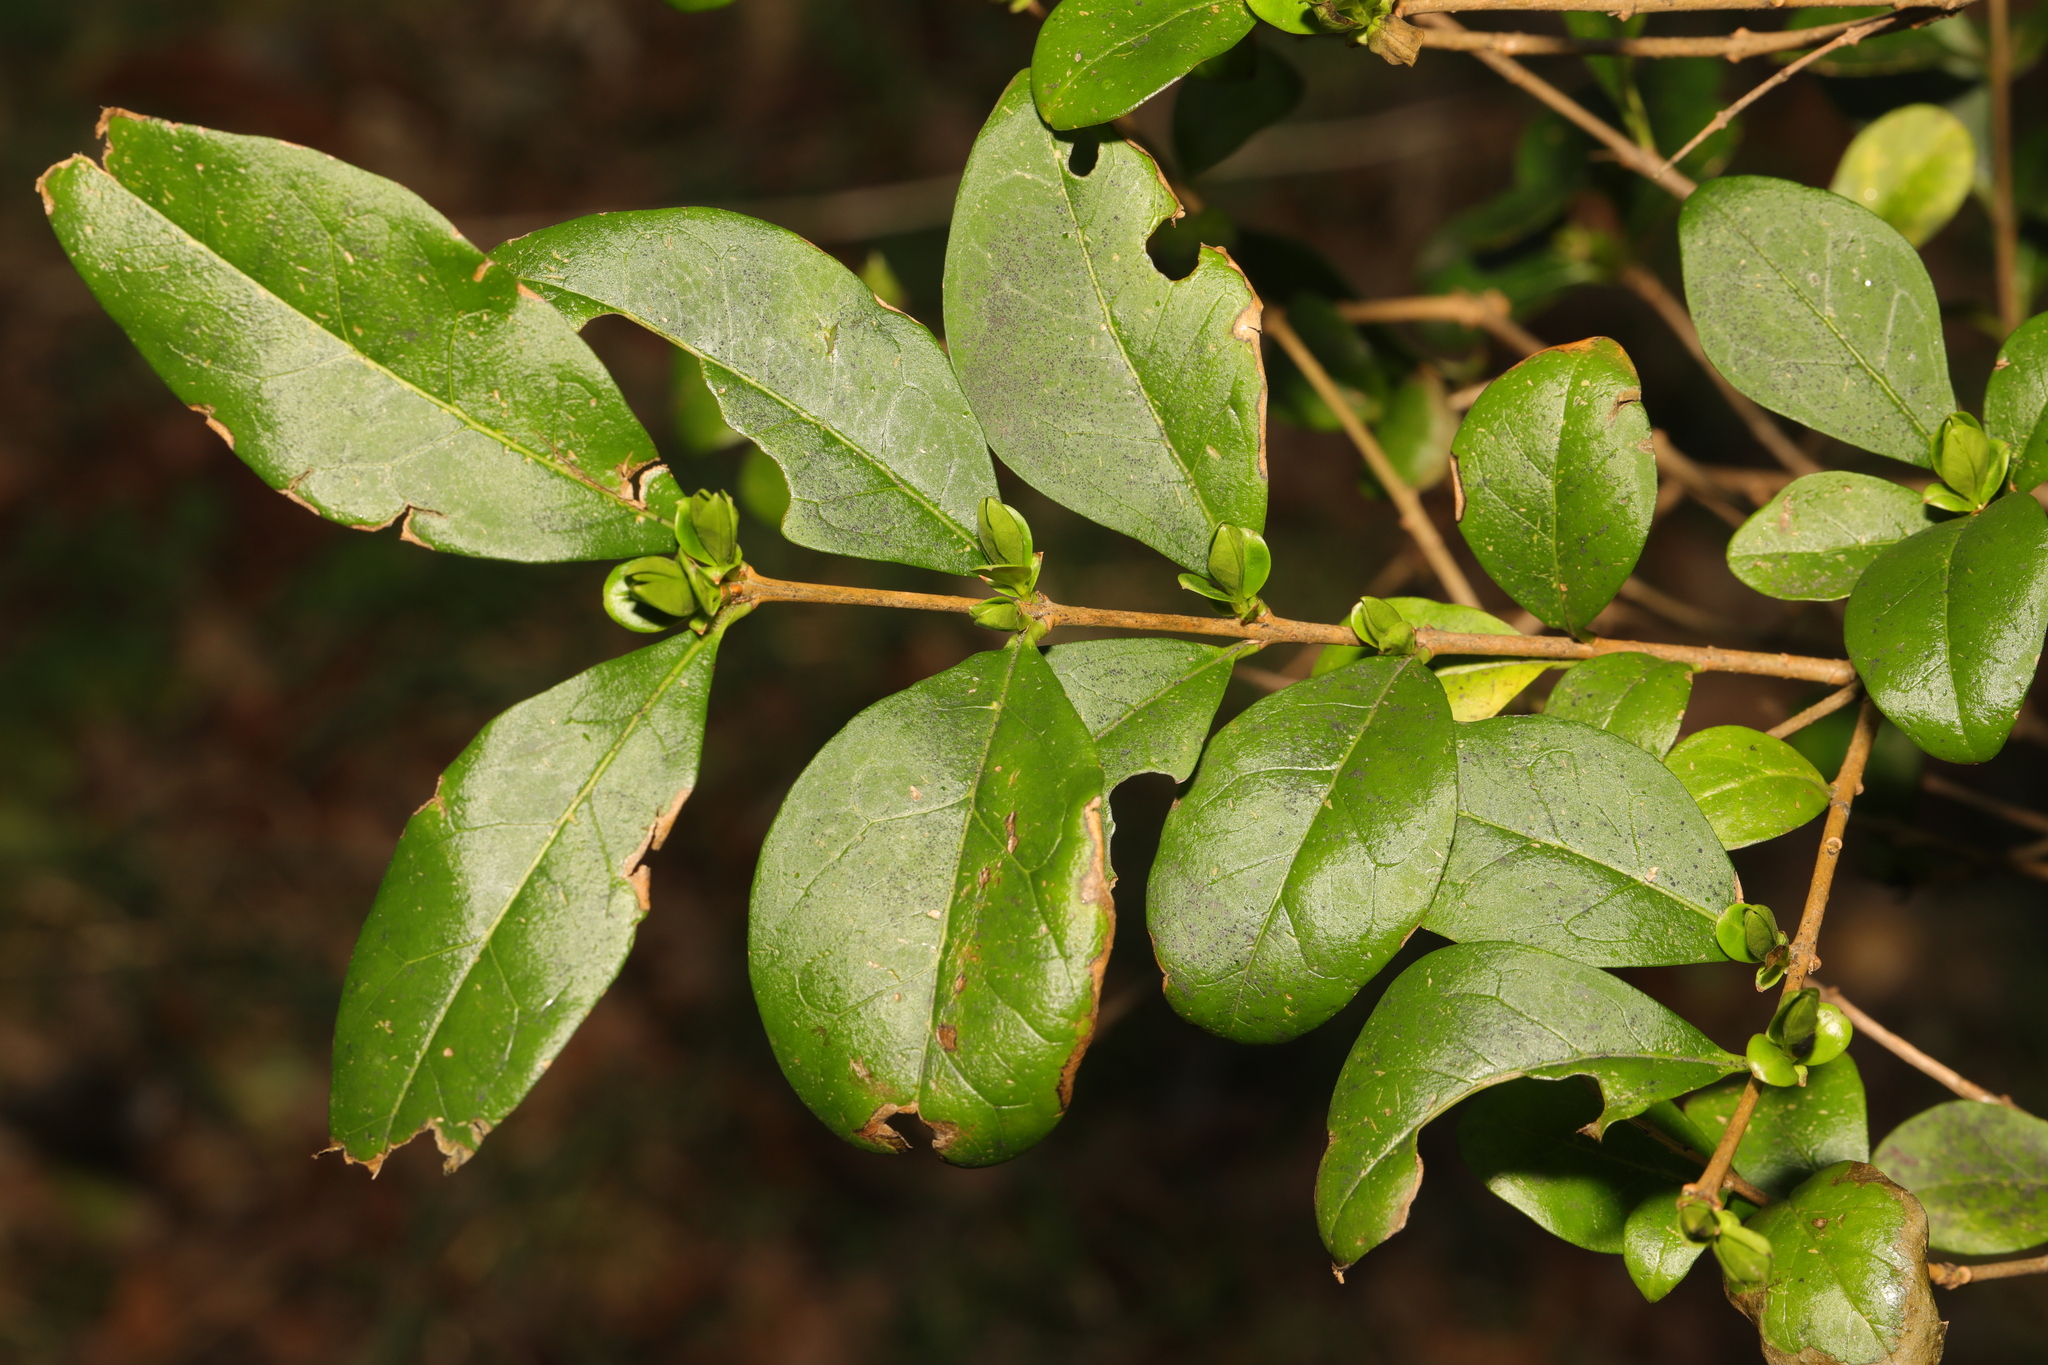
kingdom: Plantae
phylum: Tracheophyta
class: Magnoliopsida
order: Lamiales
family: Oleaceae
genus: Ligustrum
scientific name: Ligustrum ovalifolium
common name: California privet
